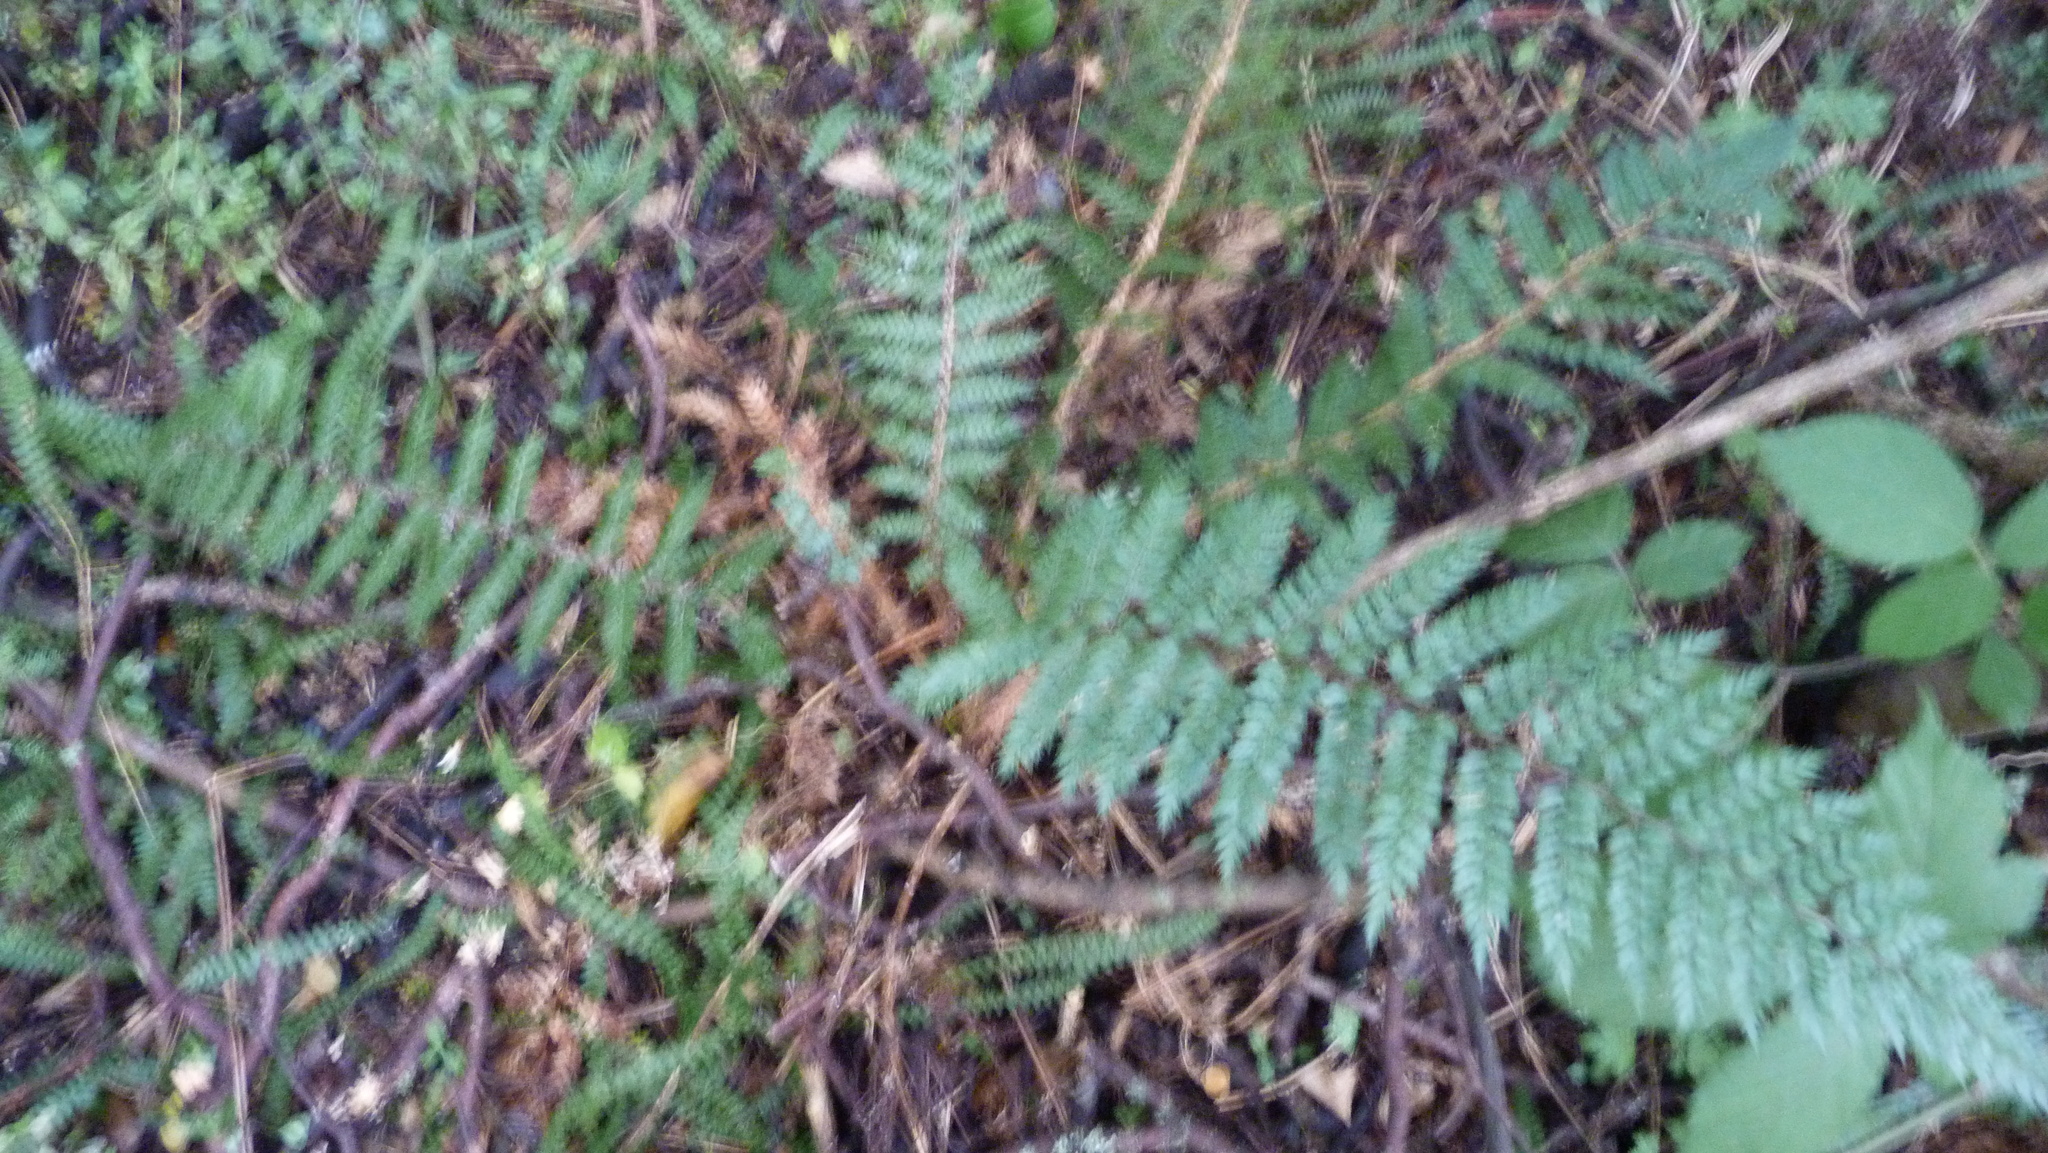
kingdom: Plantae
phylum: Tracheophyta
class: Polypodiopsida
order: Polypodiales
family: Dryopteridaceae
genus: Polystichum
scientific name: Polystichum vestitum
